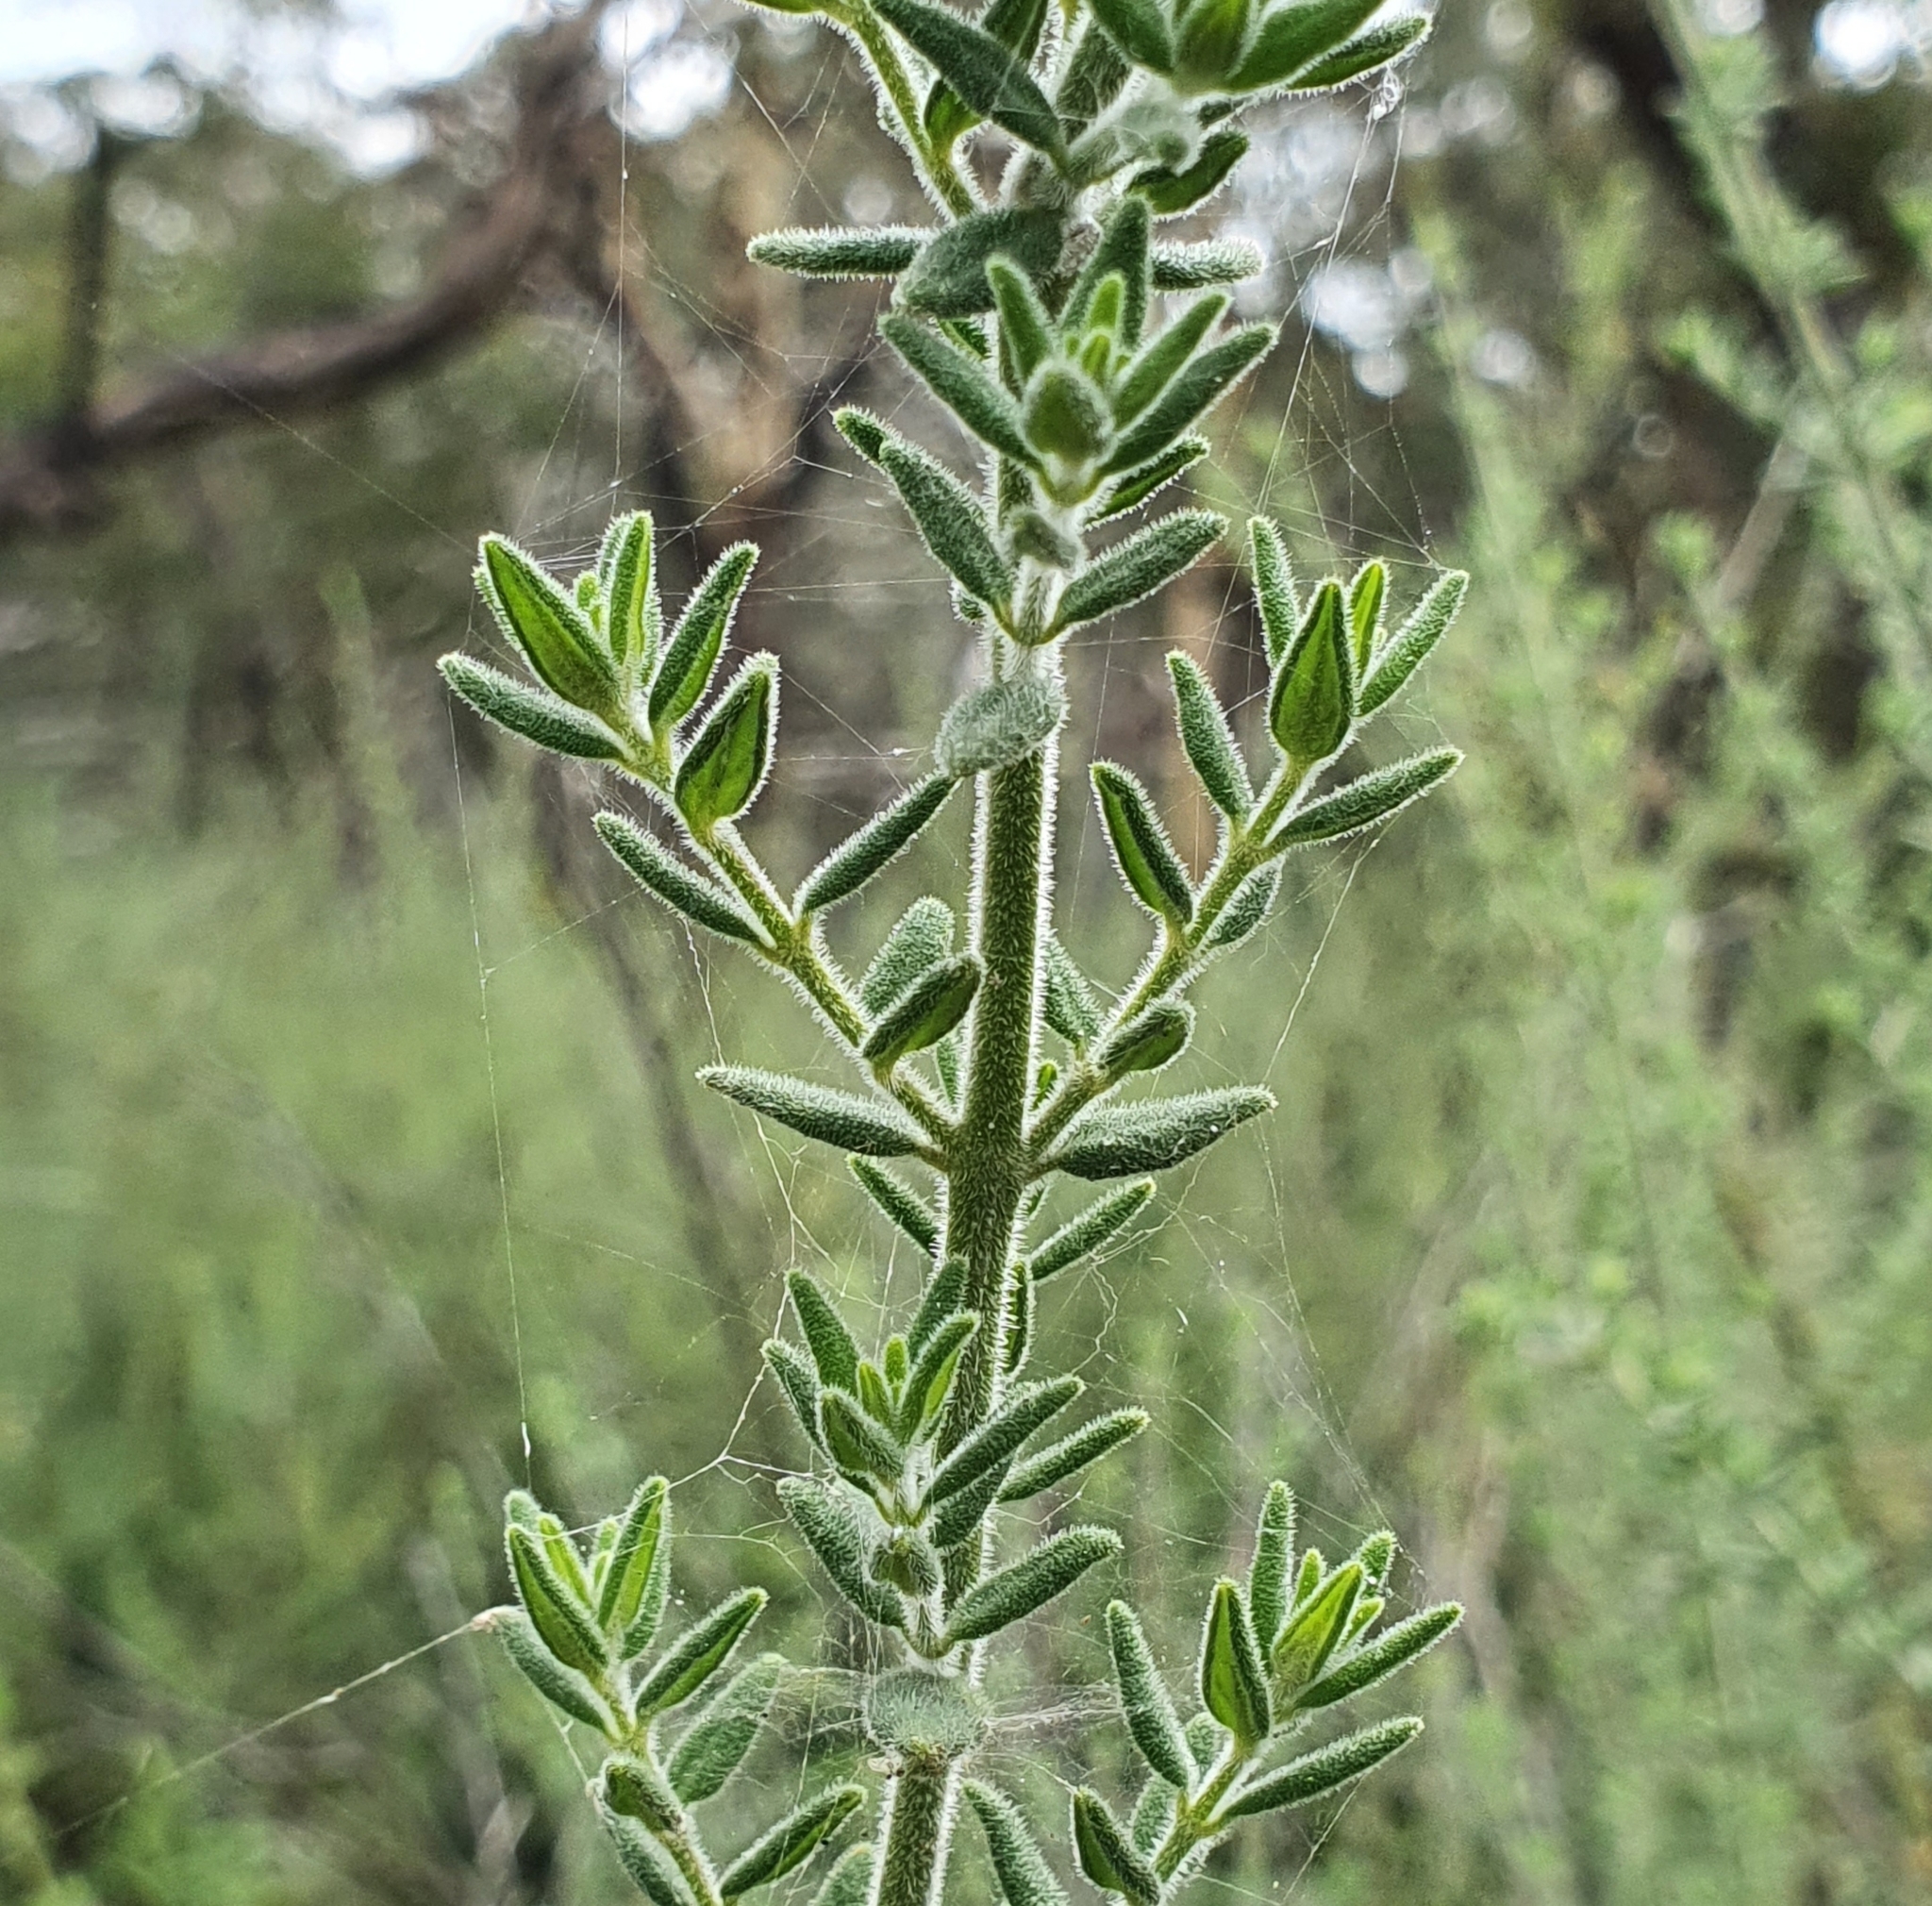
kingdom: Plantae
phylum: Tracheophyta
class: Magnoliopsida
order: Lamiales
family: Lamiaceae
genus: Prostanthera
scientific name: Prostanthera stricta
